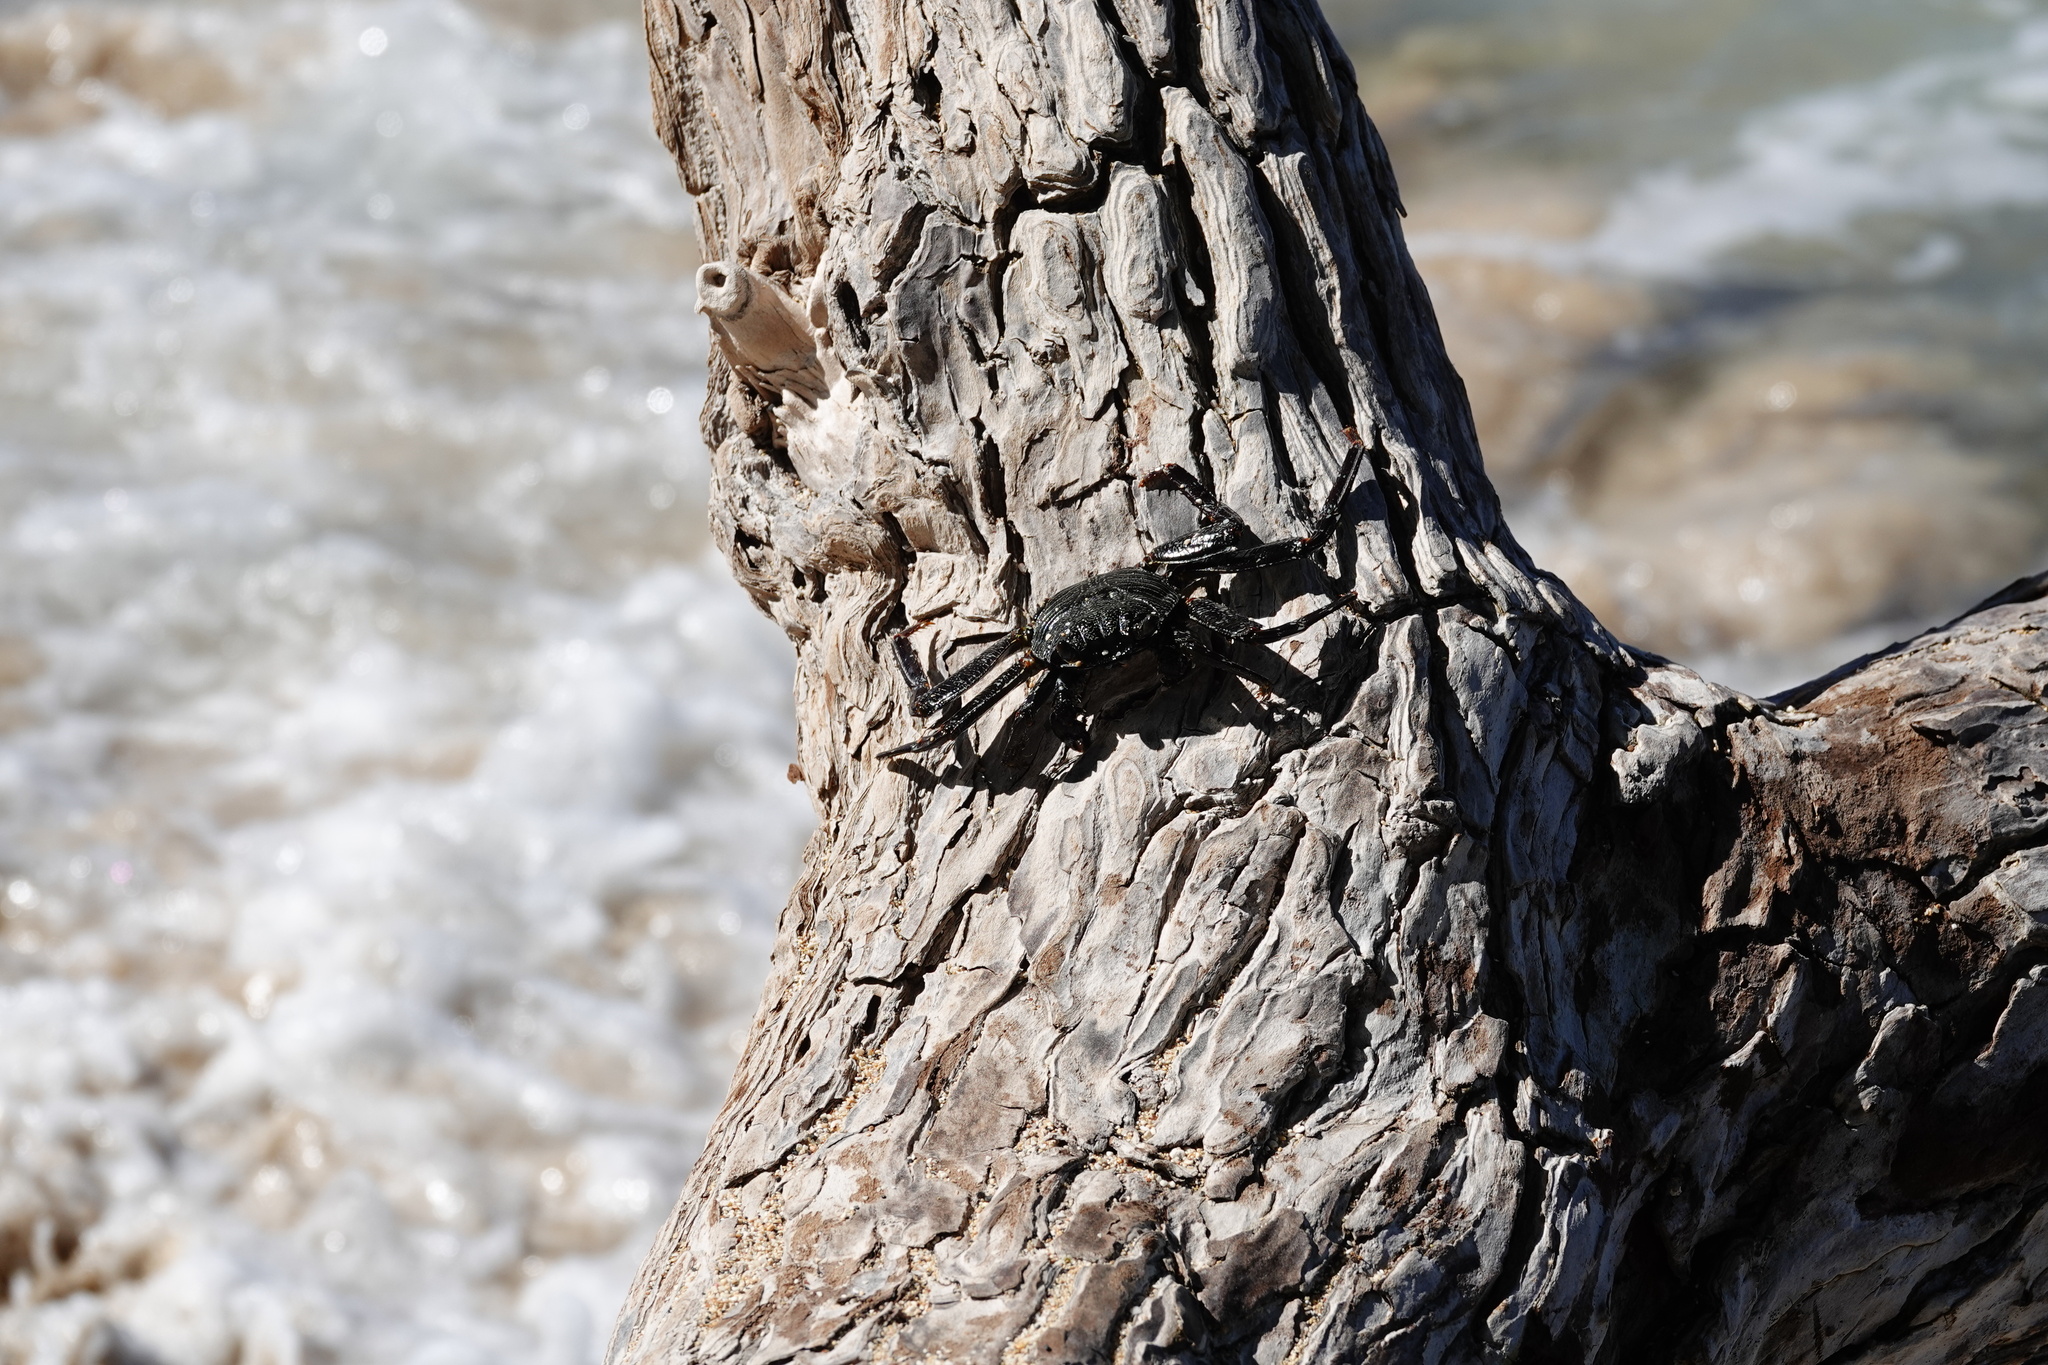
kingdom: Animalia
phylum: Arthropoda
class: Malacostraca
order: Decapoda
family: Grapsidae
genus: Grapsus
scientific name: Grapsus tenuicrustatus
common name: Natal lightfoot crab
